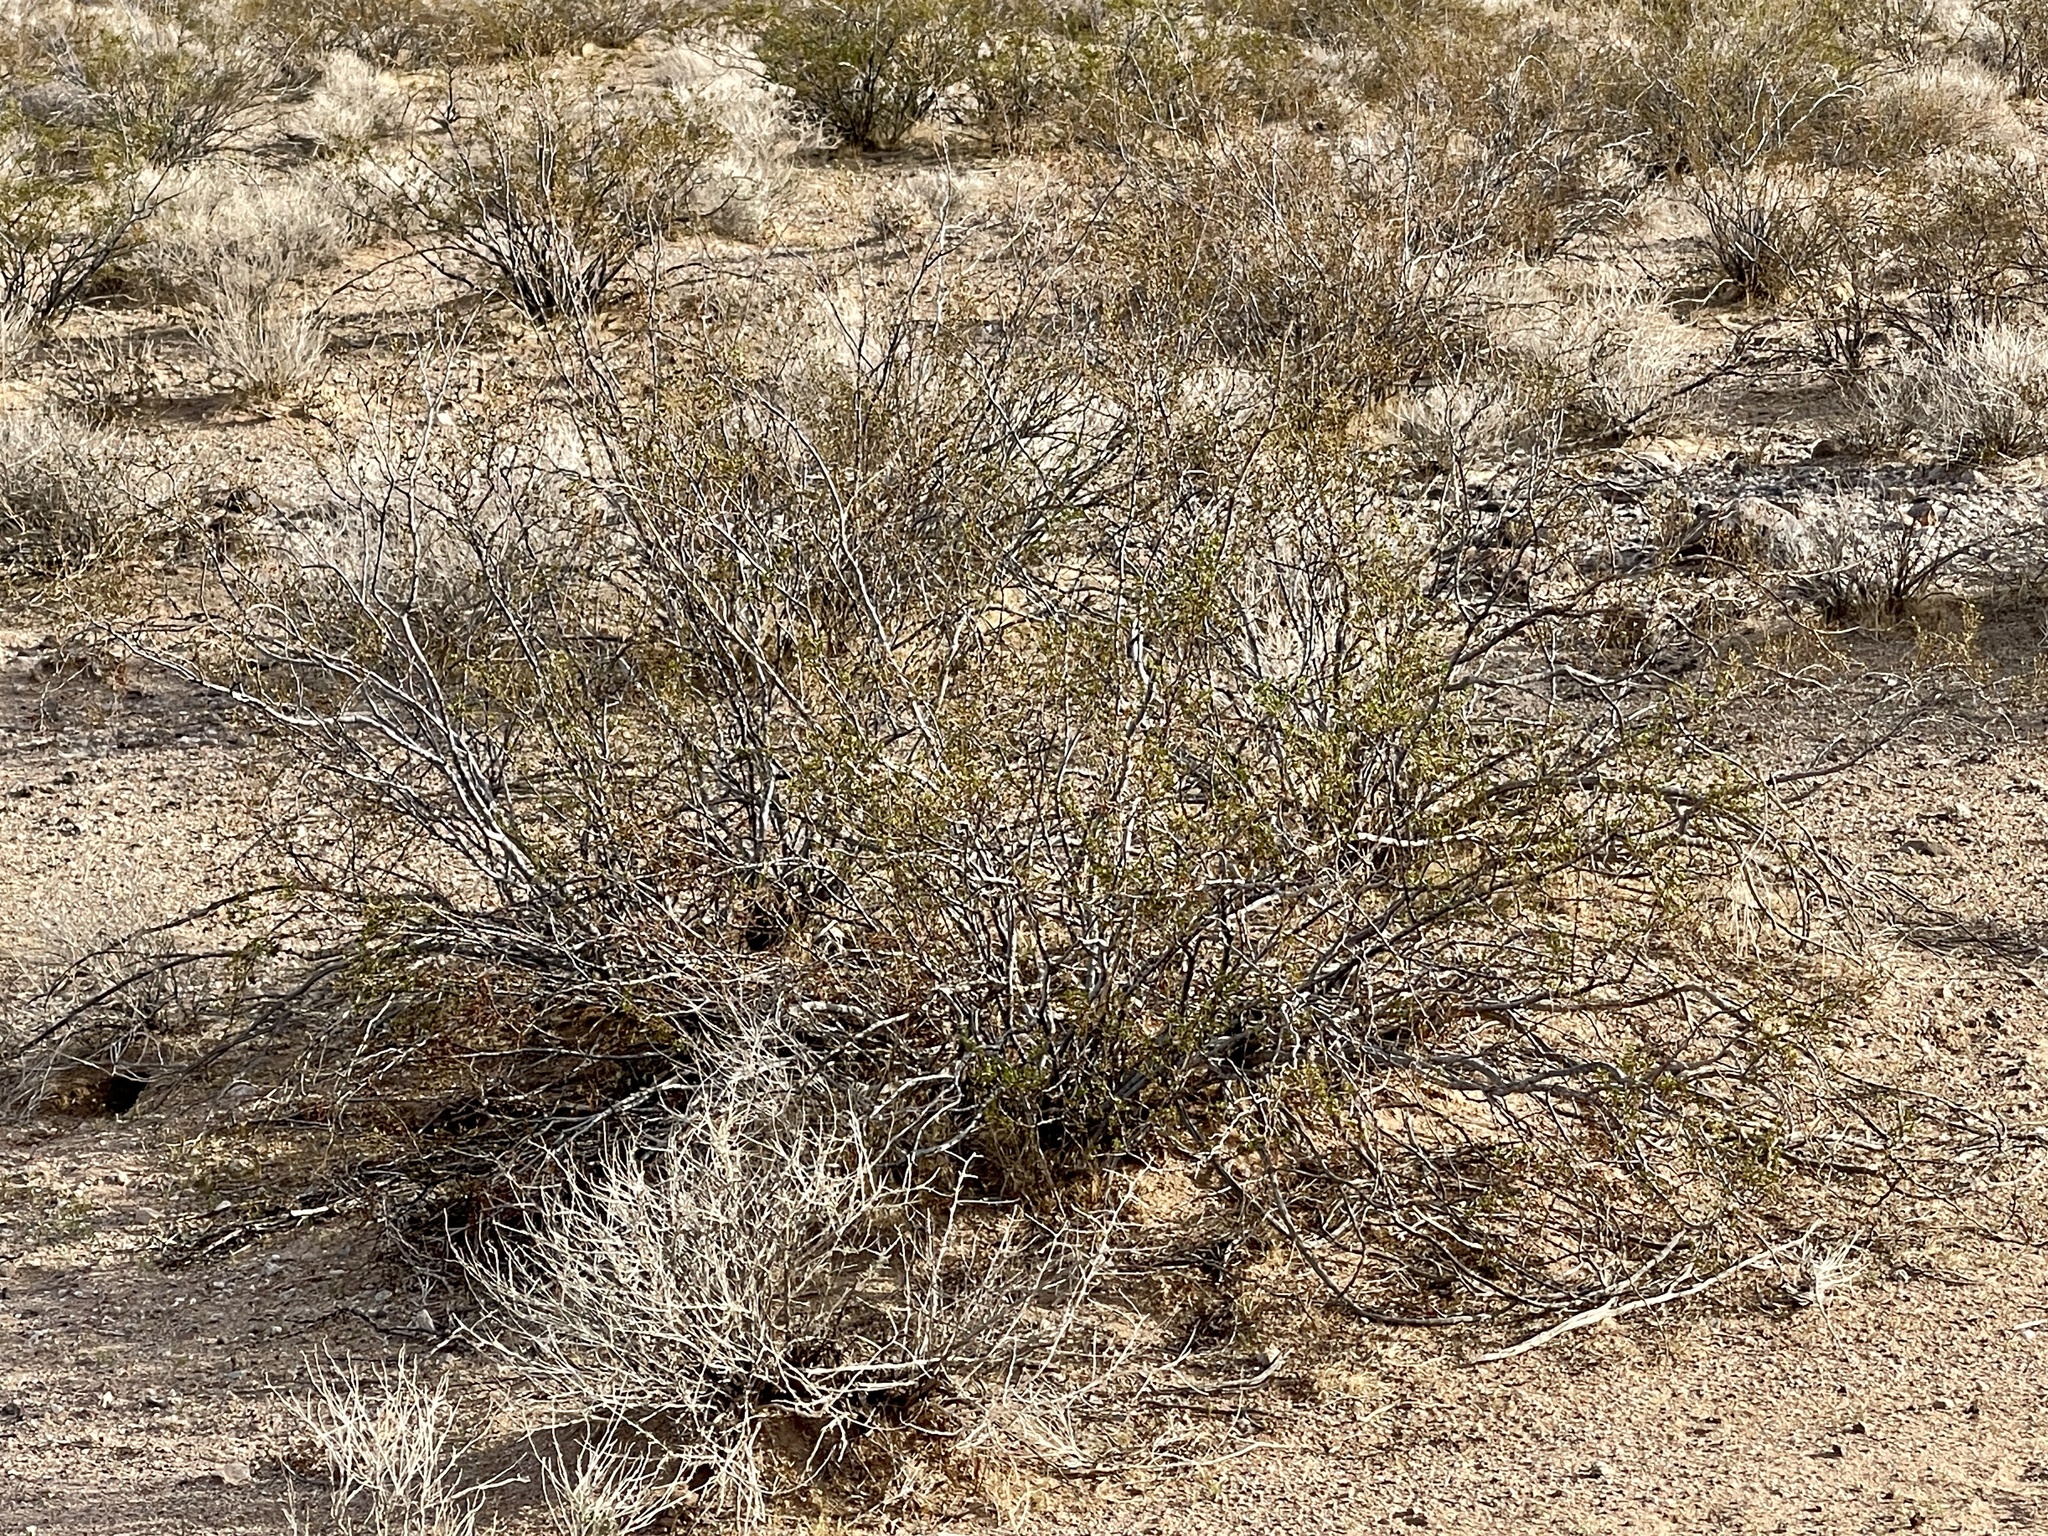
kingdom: Plantae
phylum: Tracheophyta
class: Magnoliopsida
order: Zygophyllales
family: Zygophyllaceae
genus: Larrea
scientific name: Larrea tridentata
